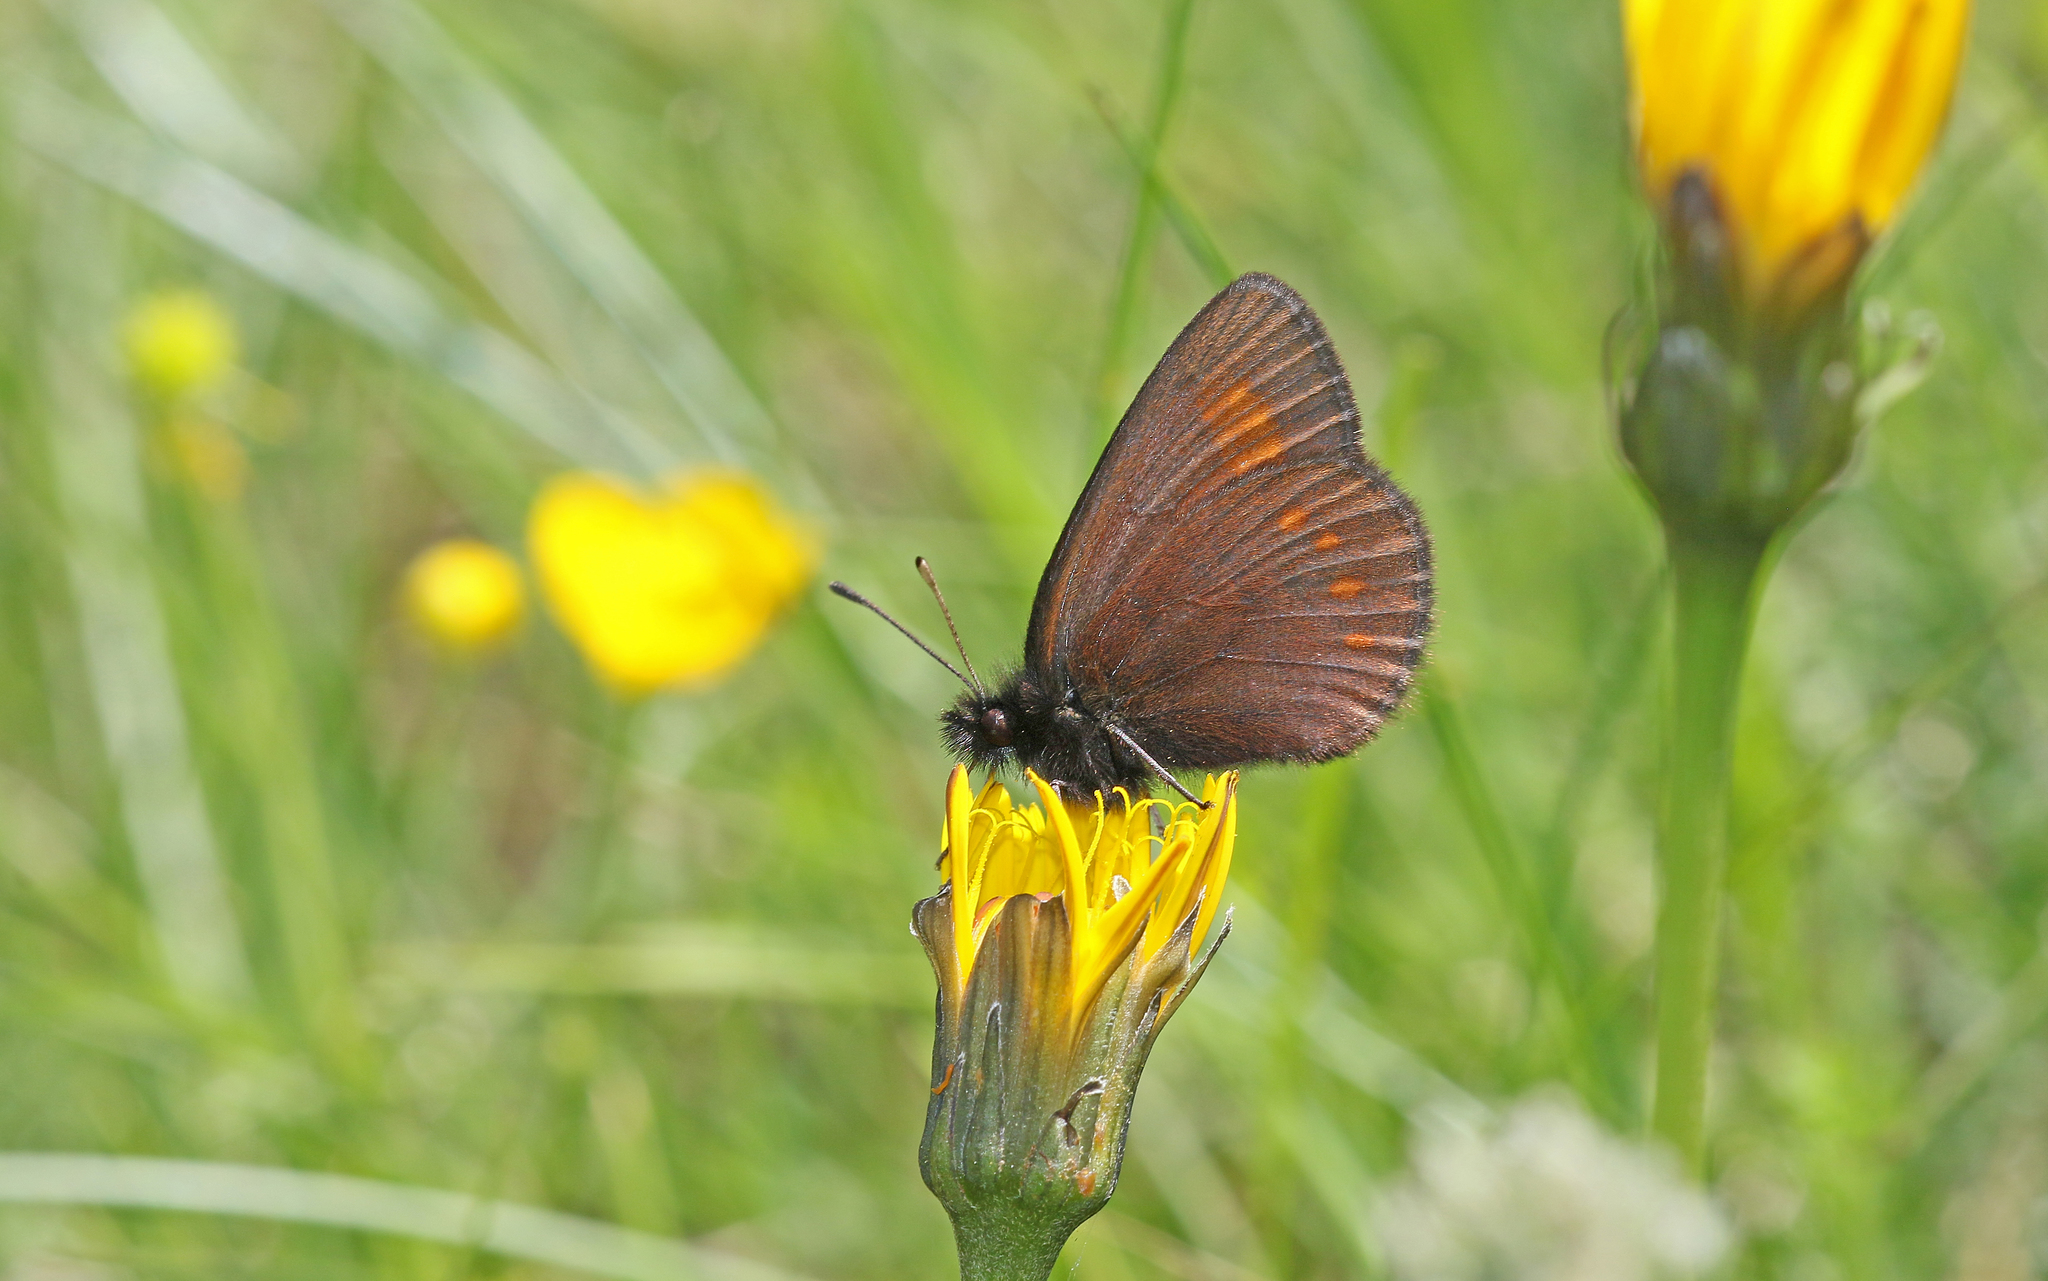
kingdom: Animalia
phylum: Arthropoda
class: Insecta
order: Lepidoptera
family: Nymphalidae
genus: Erebia
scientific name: Erebia pharte
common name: Blind ringlet
